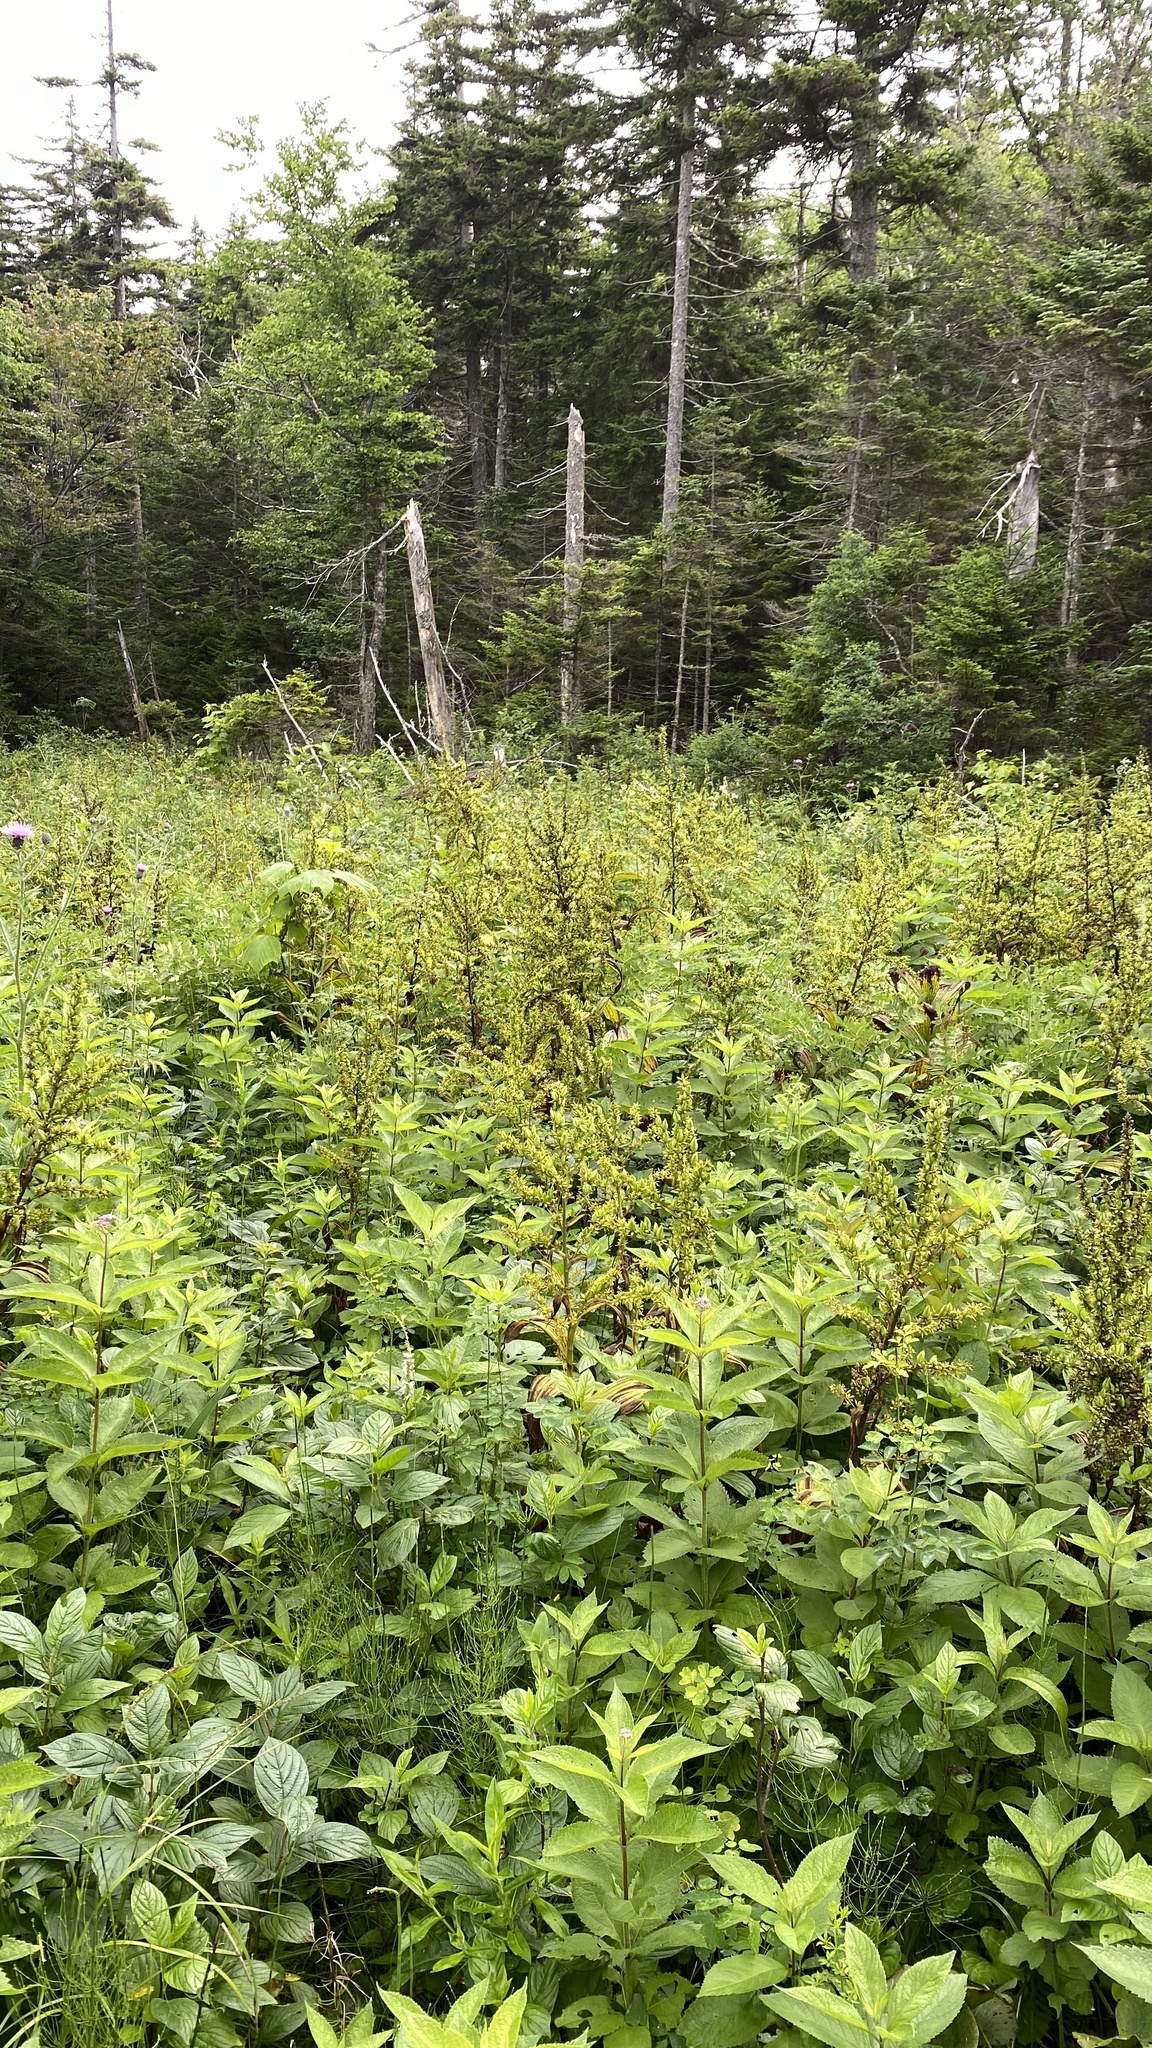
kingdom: Plantae
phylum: Tracheophyta
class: Liliopsida
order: Liliales
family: Melanthiaceae
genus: Veratrum
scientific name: Veratrum viride
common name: American false hellebore
